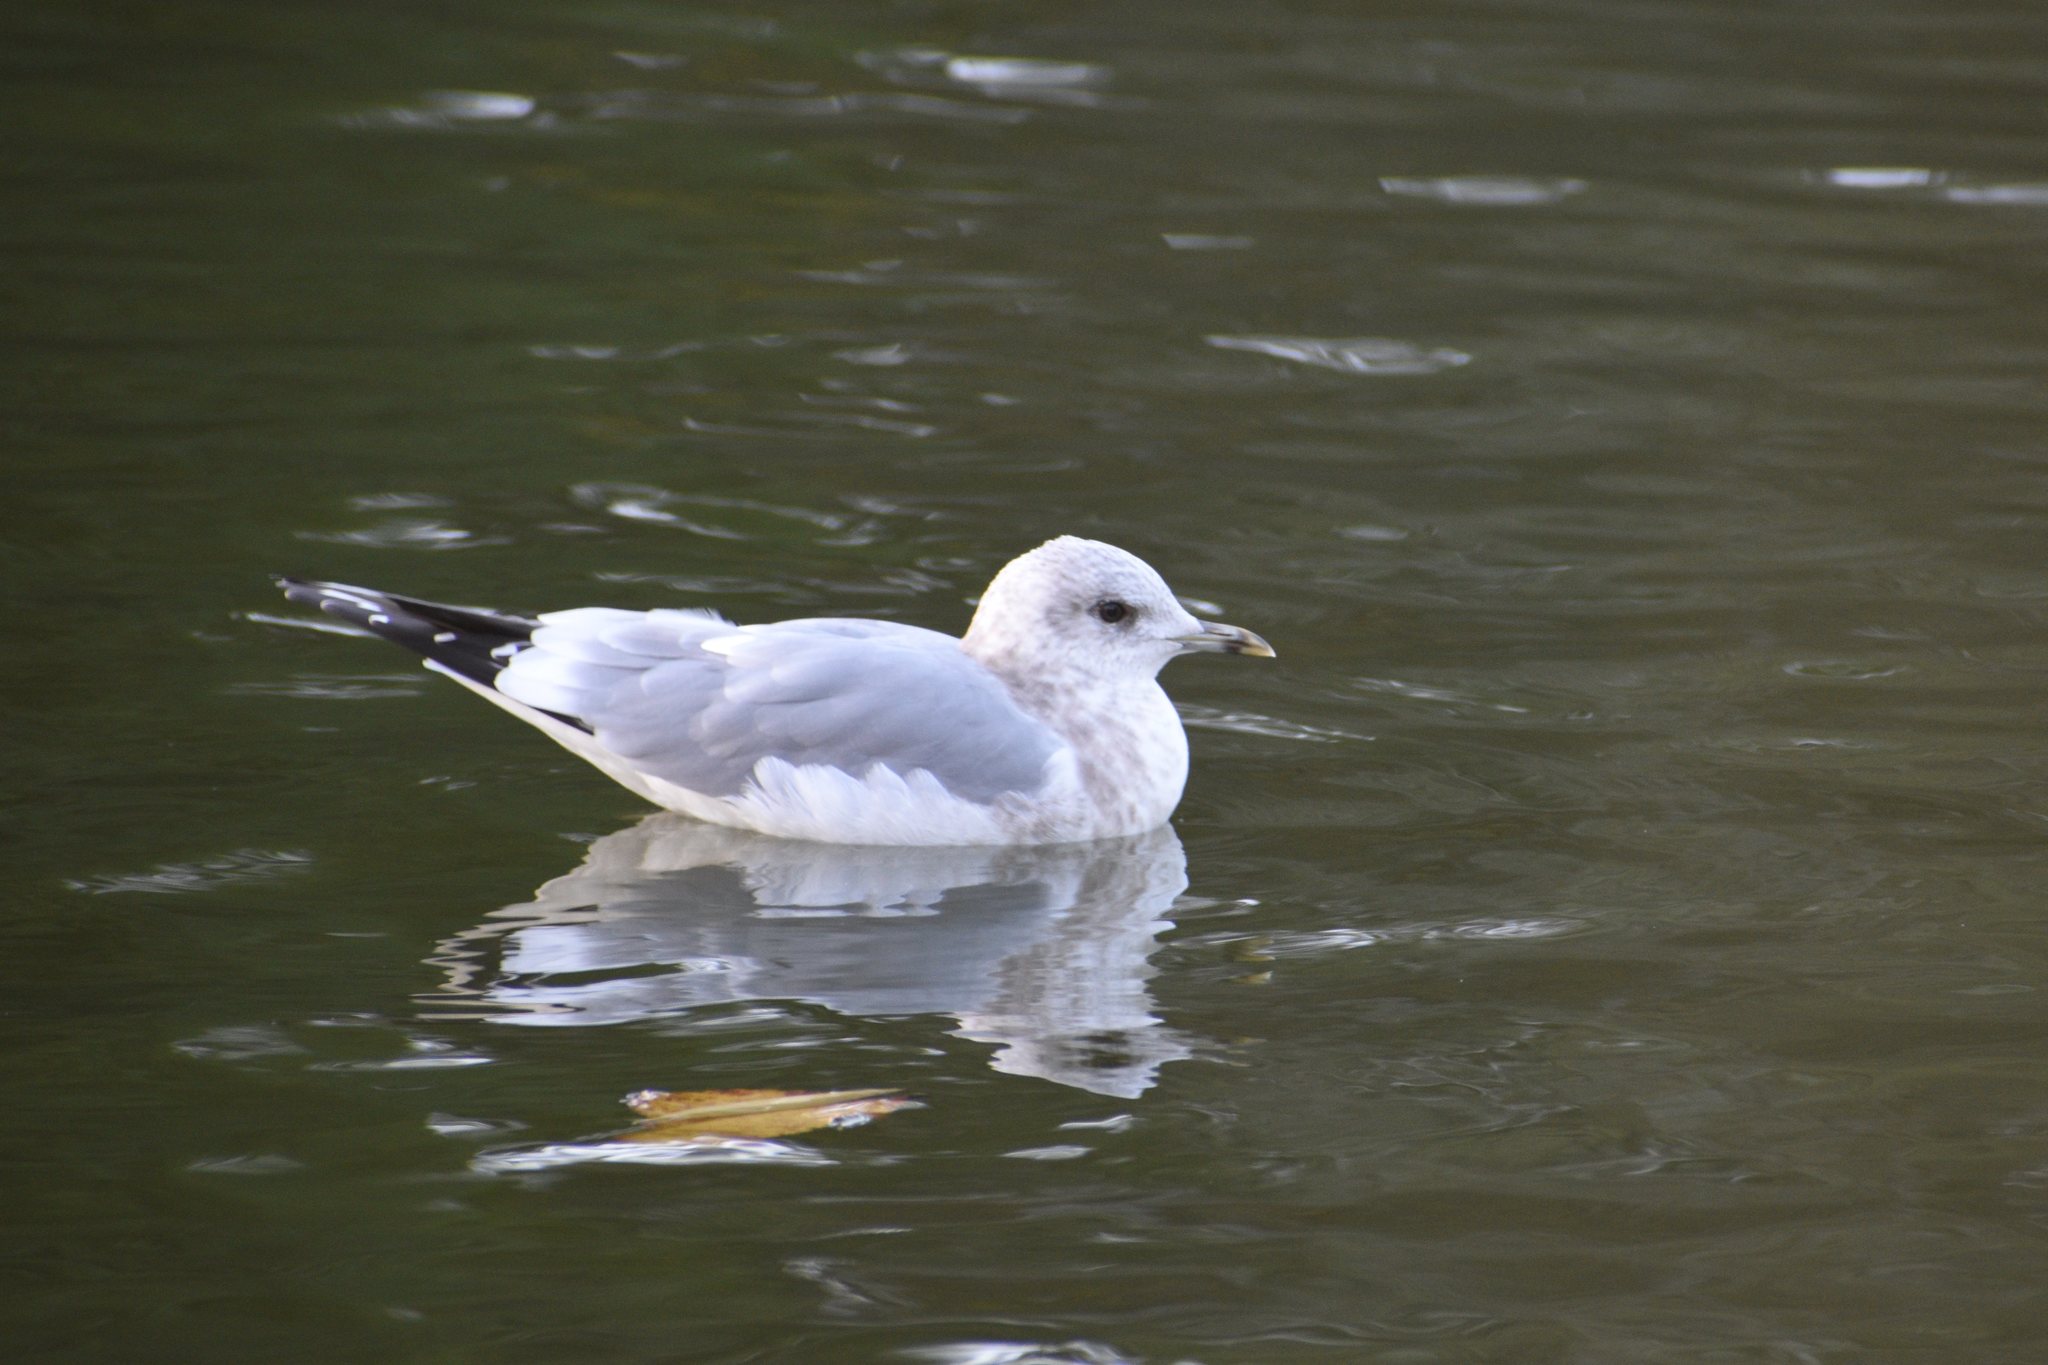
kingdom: Animalia
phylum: Chordata
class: Aves
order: Charadriiformes
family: Laridae
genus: Larus
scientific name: Larus brachyrhynchus
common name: Short-billed gull
